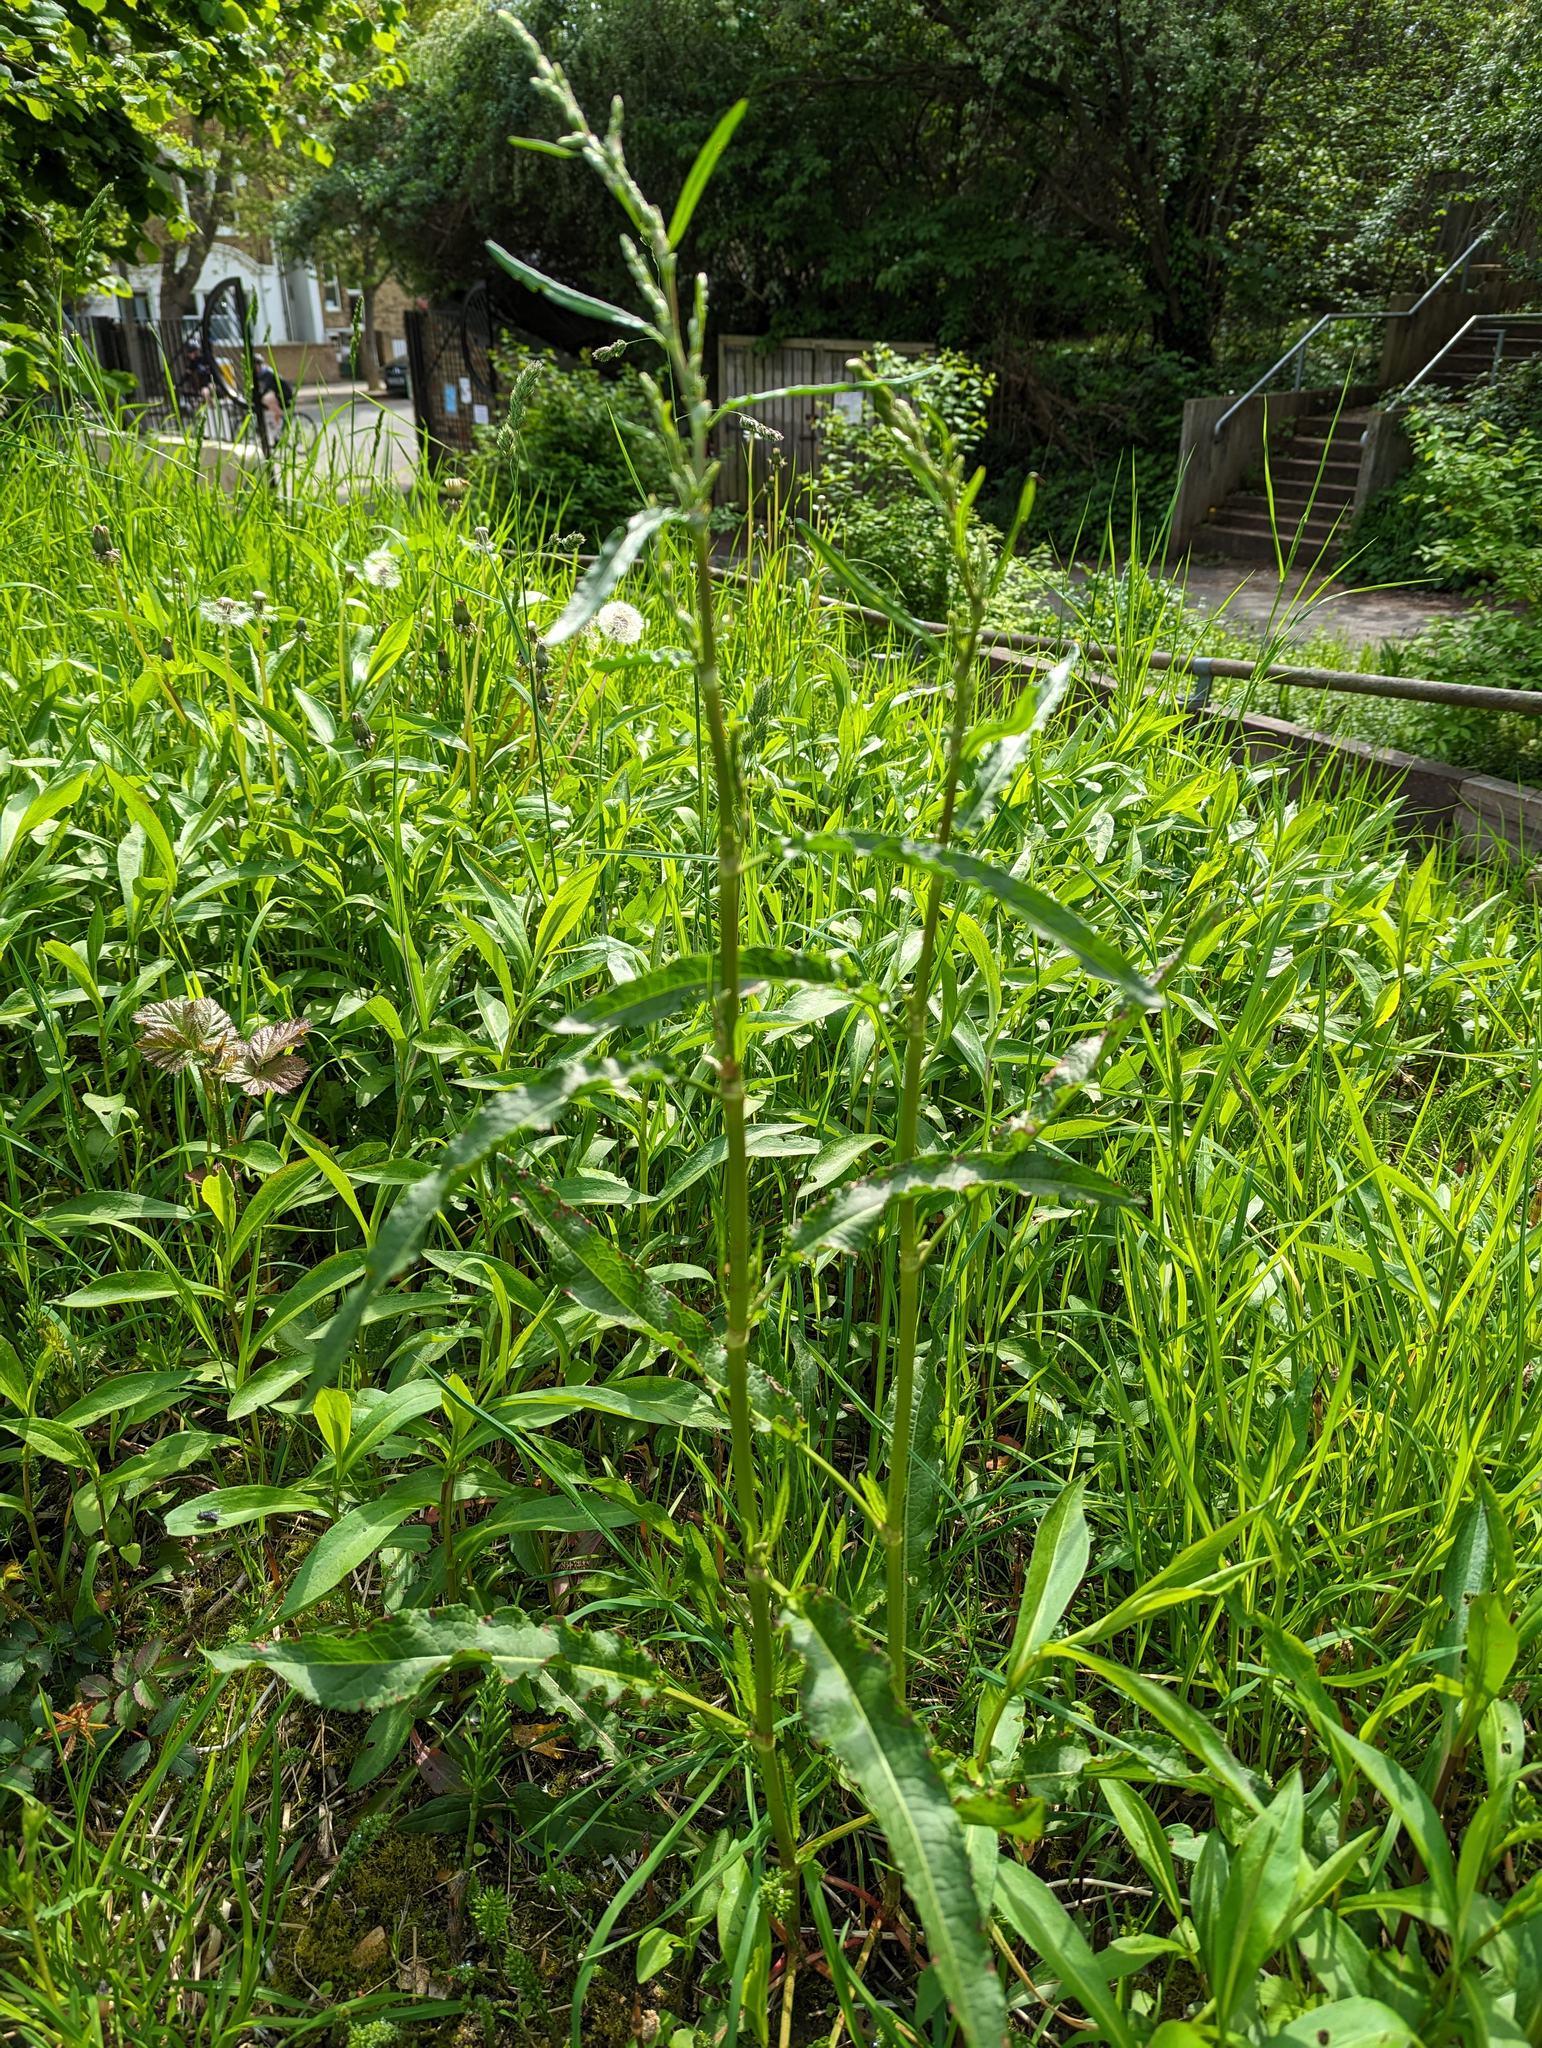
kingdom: Plantae
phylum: Tracheophyta
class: Magnoliopsida
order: Caryophyllales
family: Polygonaceae
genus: Rumex
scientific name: Rumex crispus
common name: Curled dock
